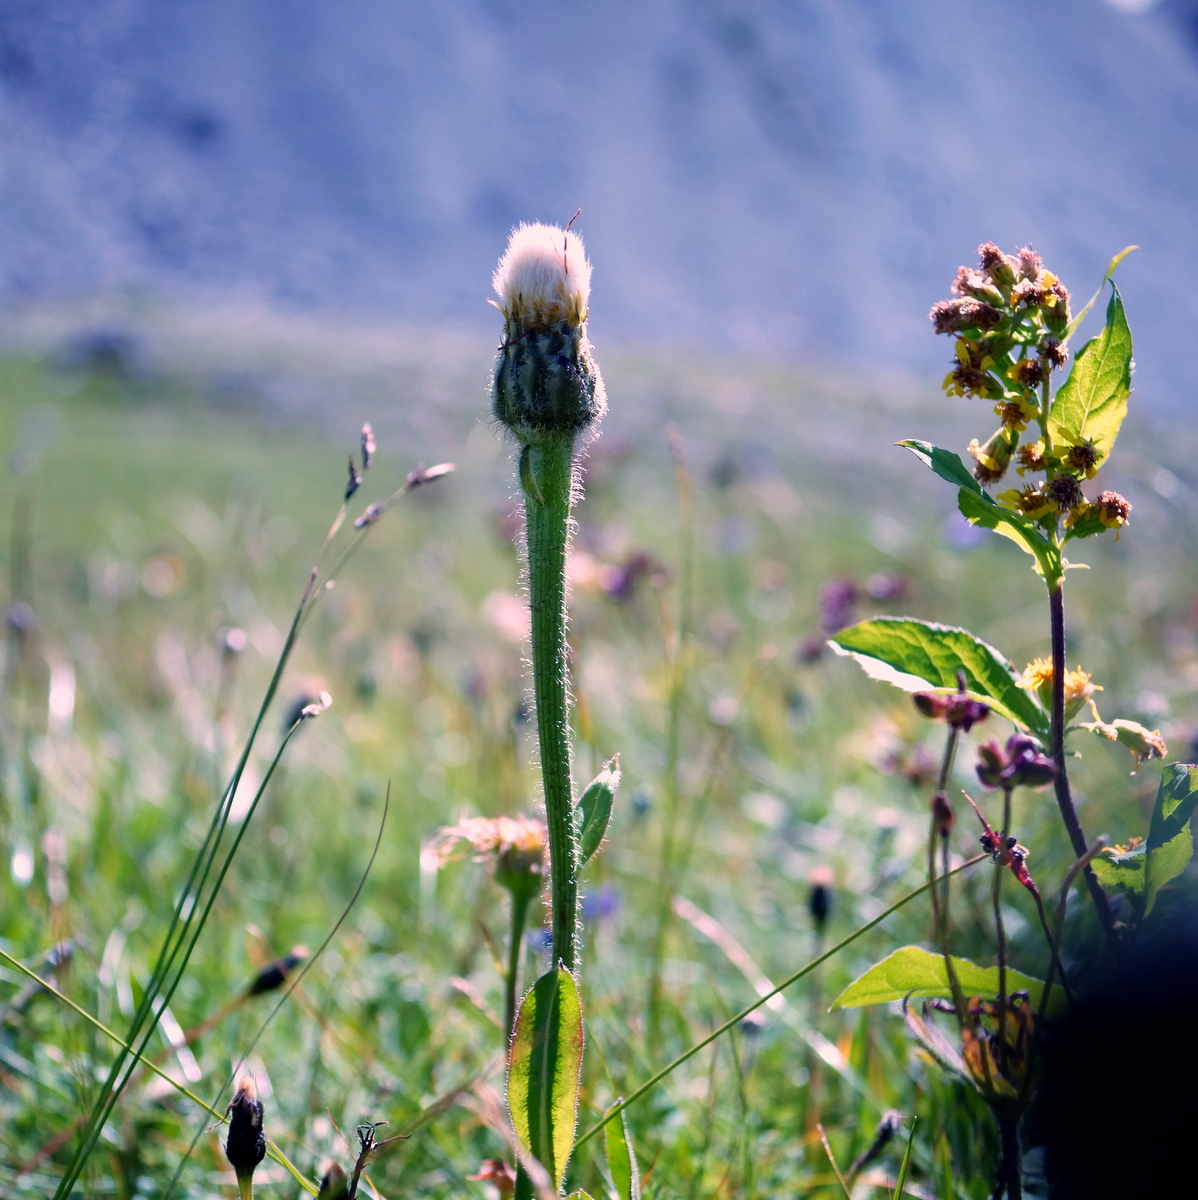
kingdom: Plantae
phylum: Tracheophyta
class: Magnoliopsida
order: Asterales
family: Asteraceae
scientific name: Asteraceae
